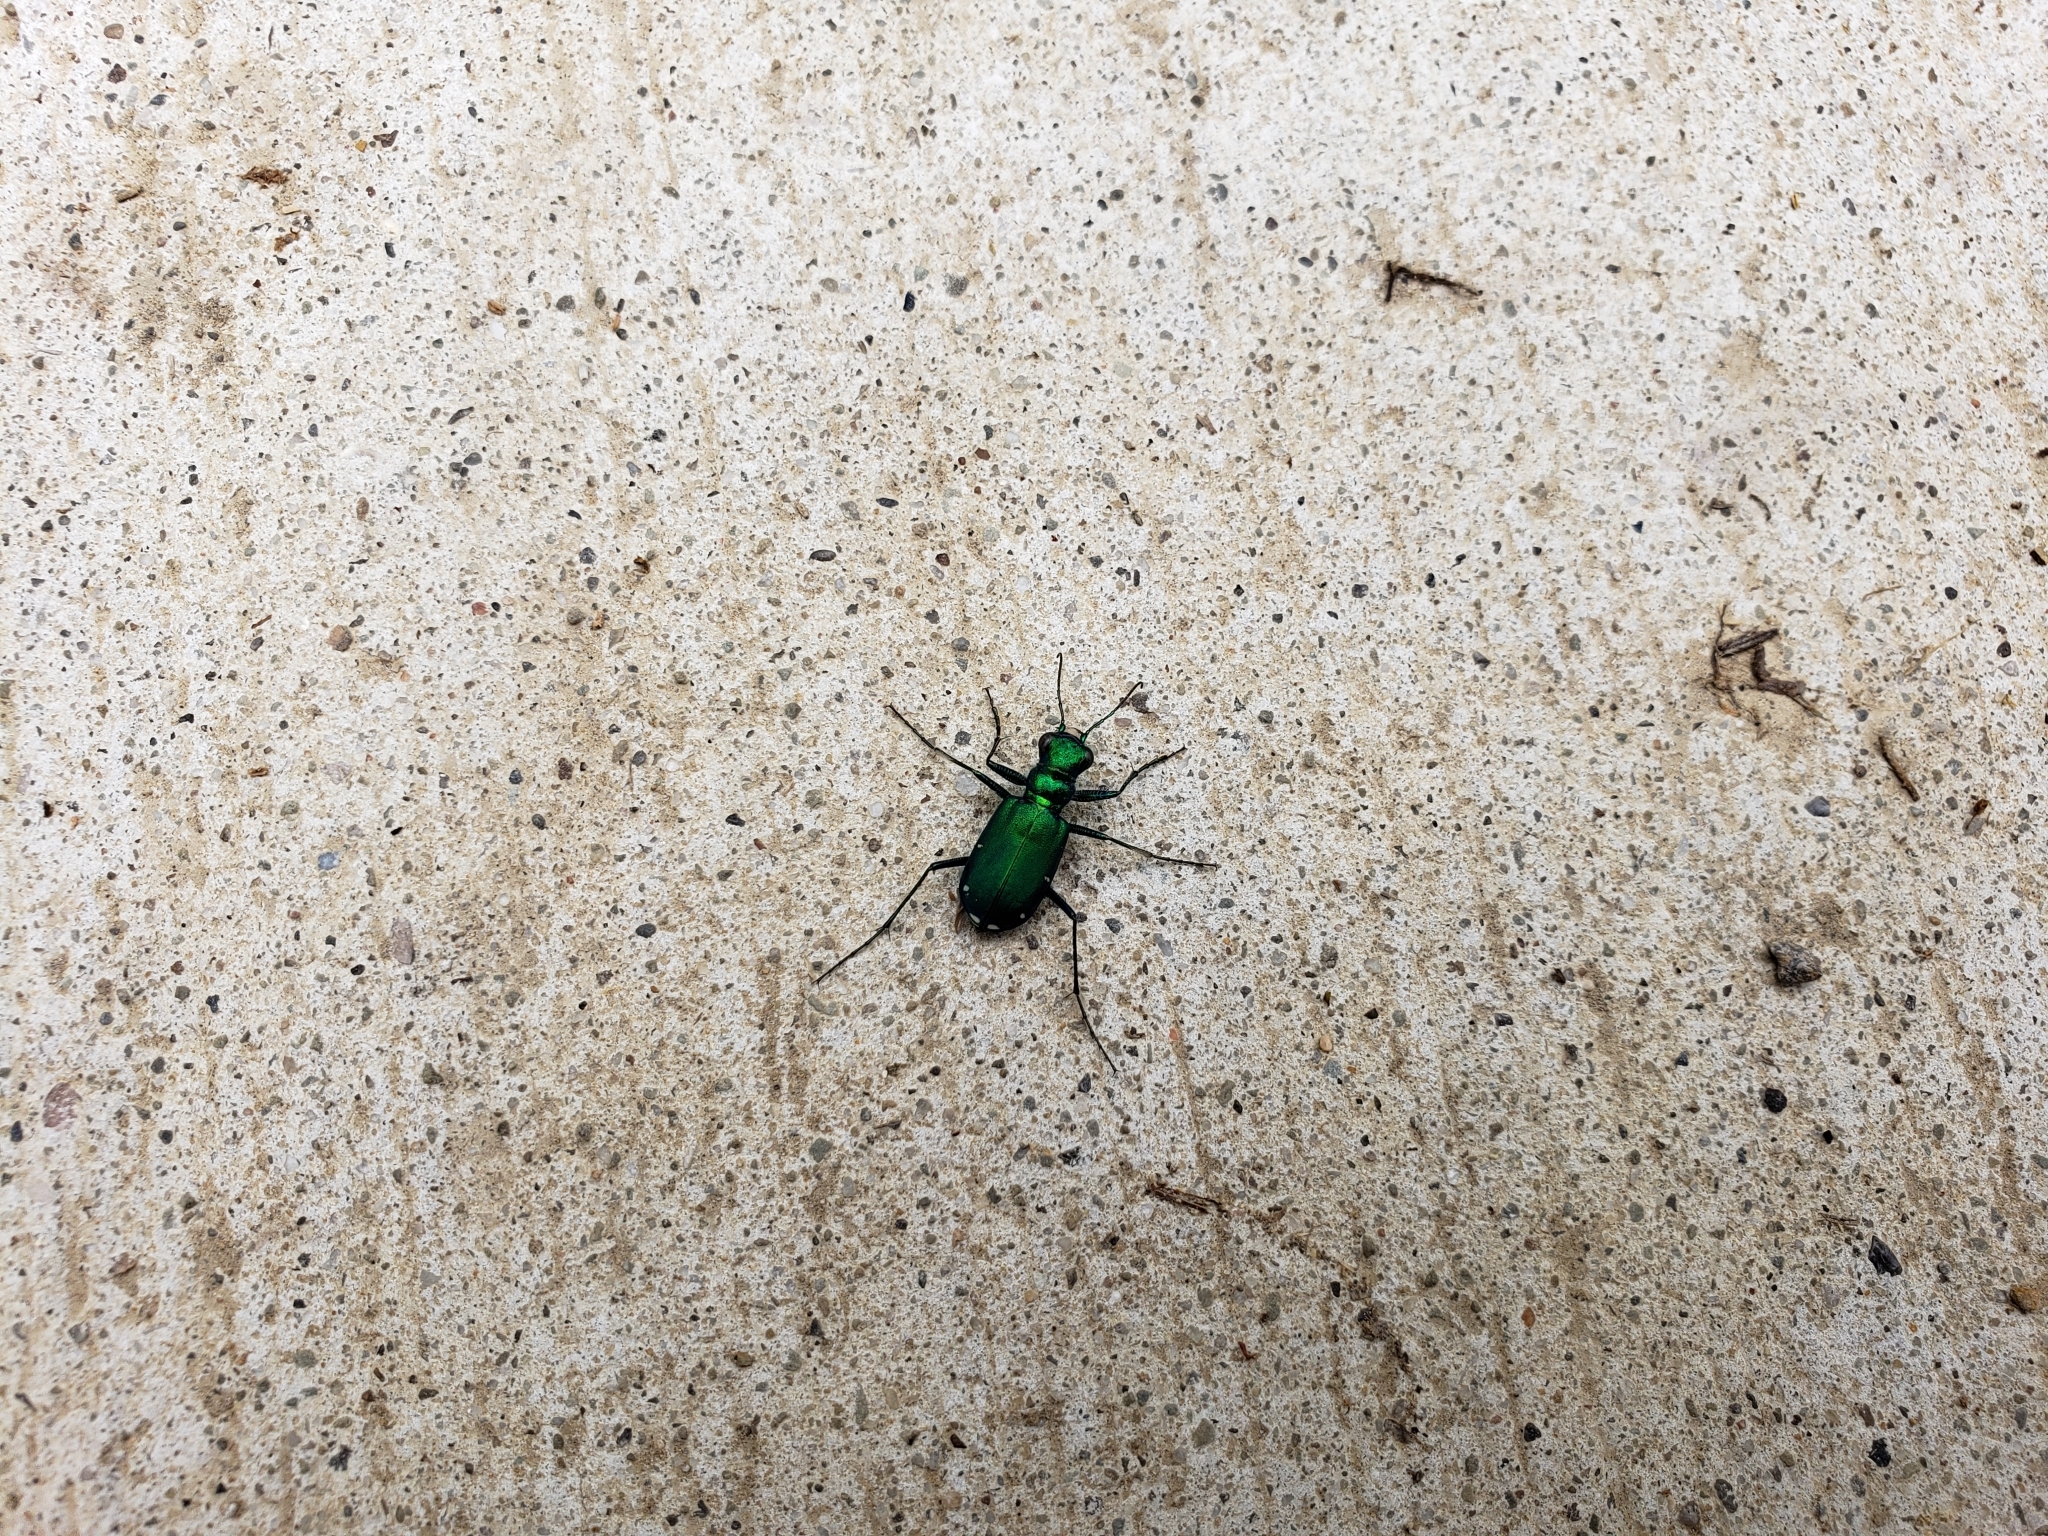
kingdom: Animalia
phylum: Arthropoda
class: Insecta
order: Coleoptera
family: Carabidae
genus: Cicindela
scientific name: Cicindela sexguttata
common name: Six-spotted tiger beetle
